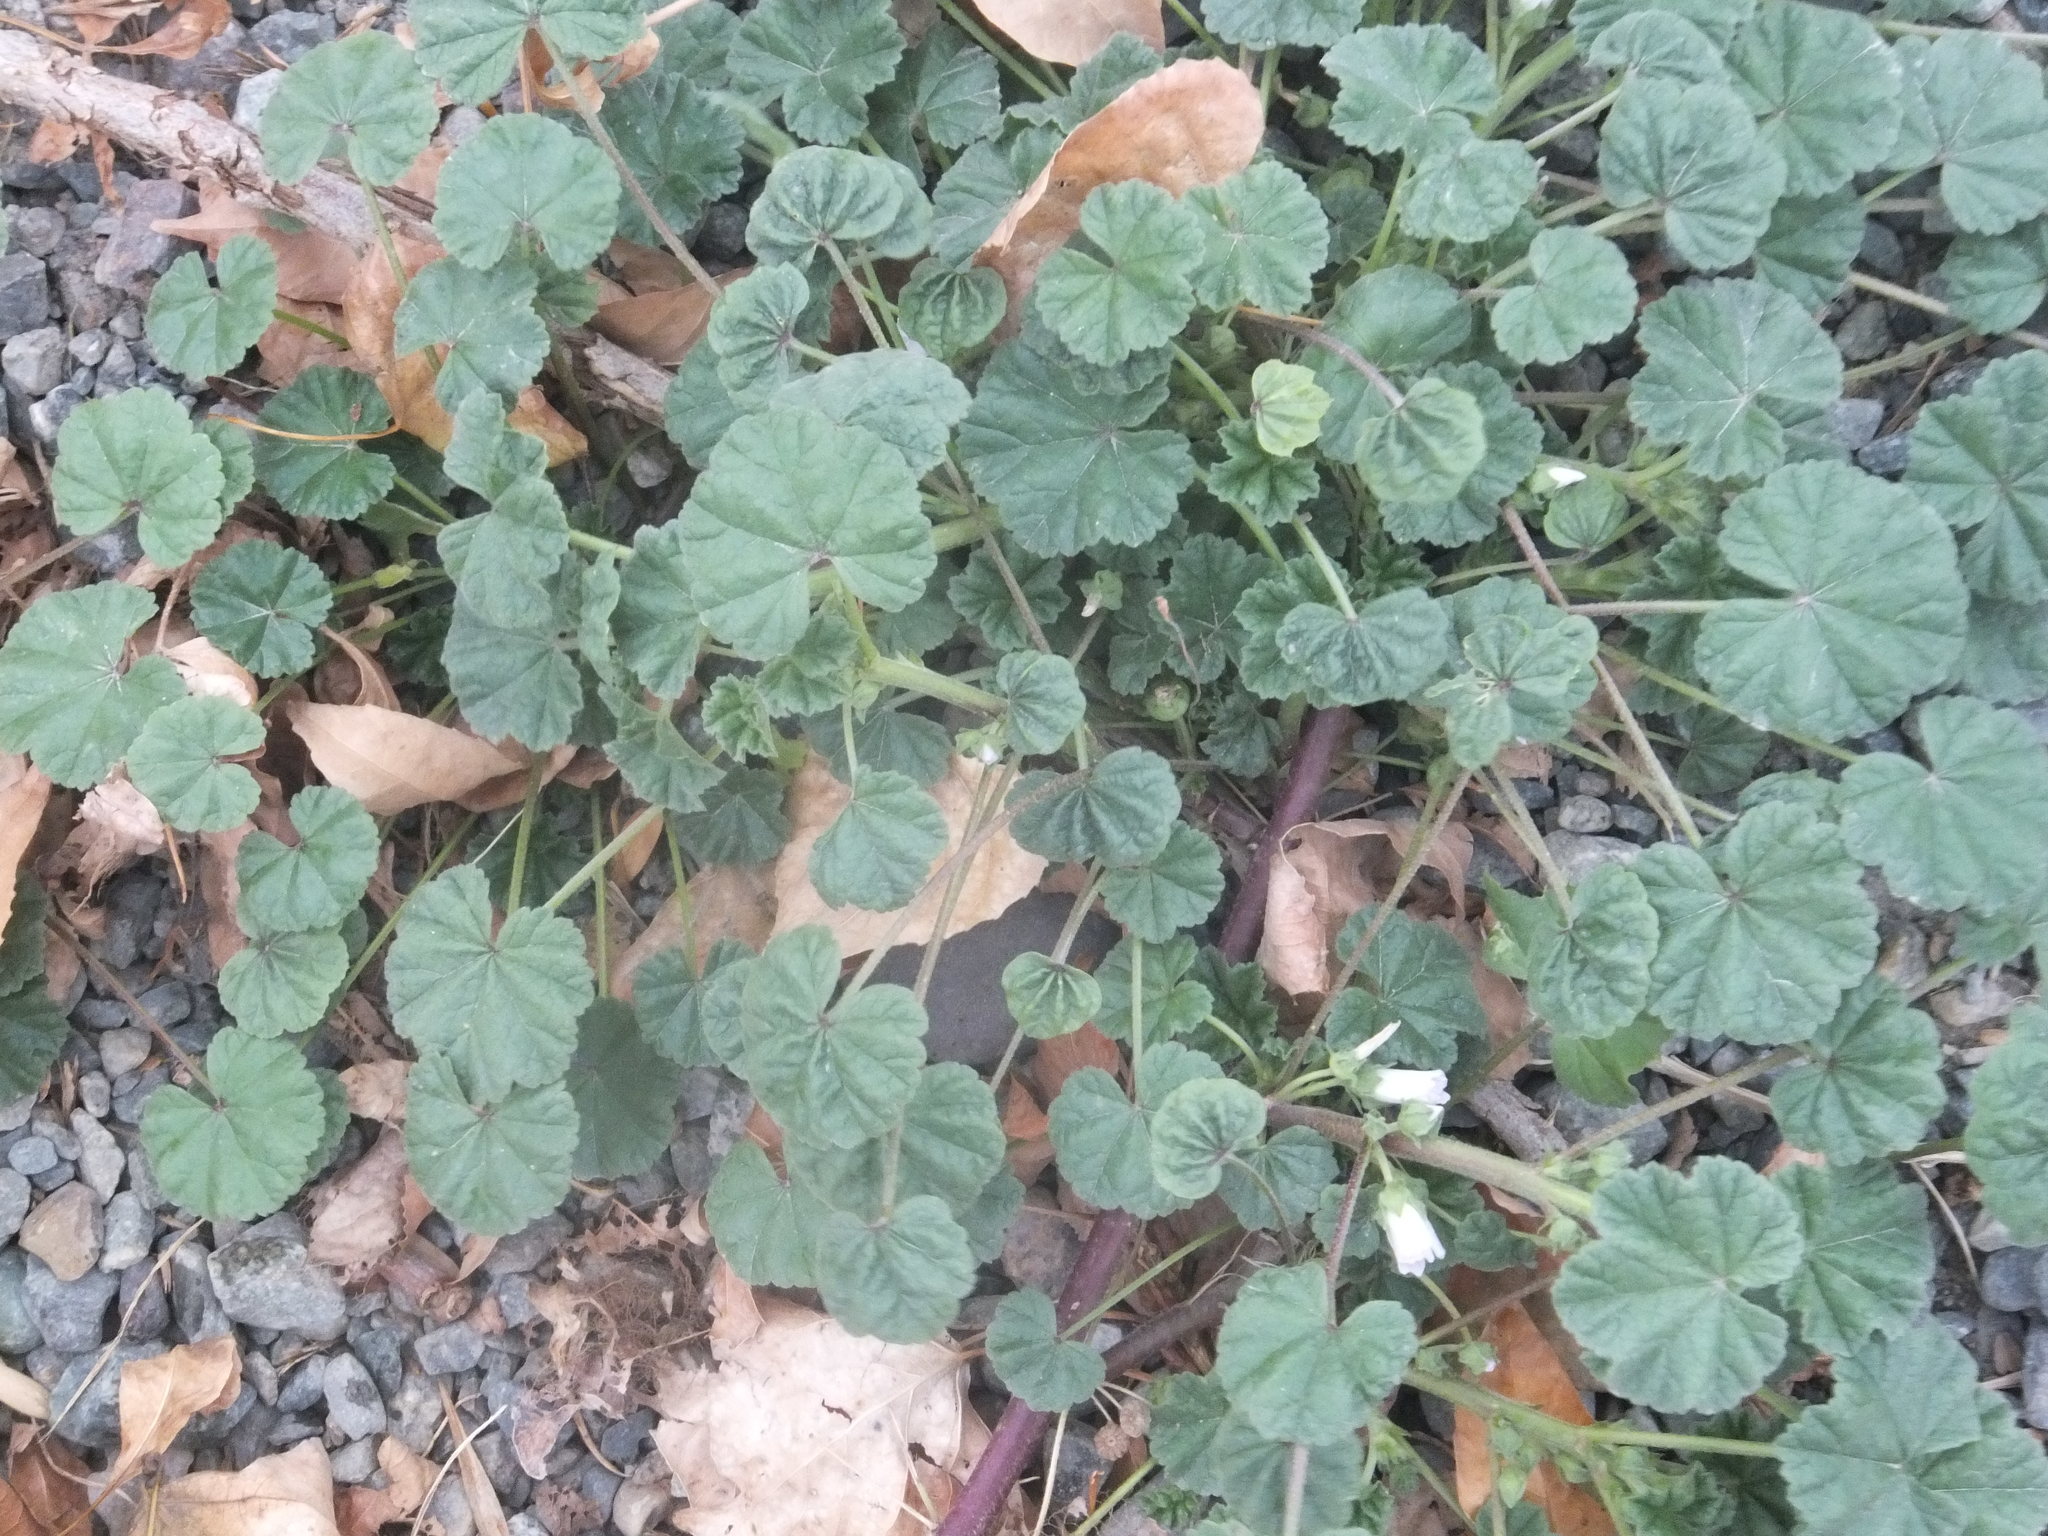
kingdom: Plantae
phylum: Tracheophyta
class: Magnoliopsida
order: Malvales
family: Malvaceae
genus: Malva
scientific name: Malva neglecta
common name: Common mallow
